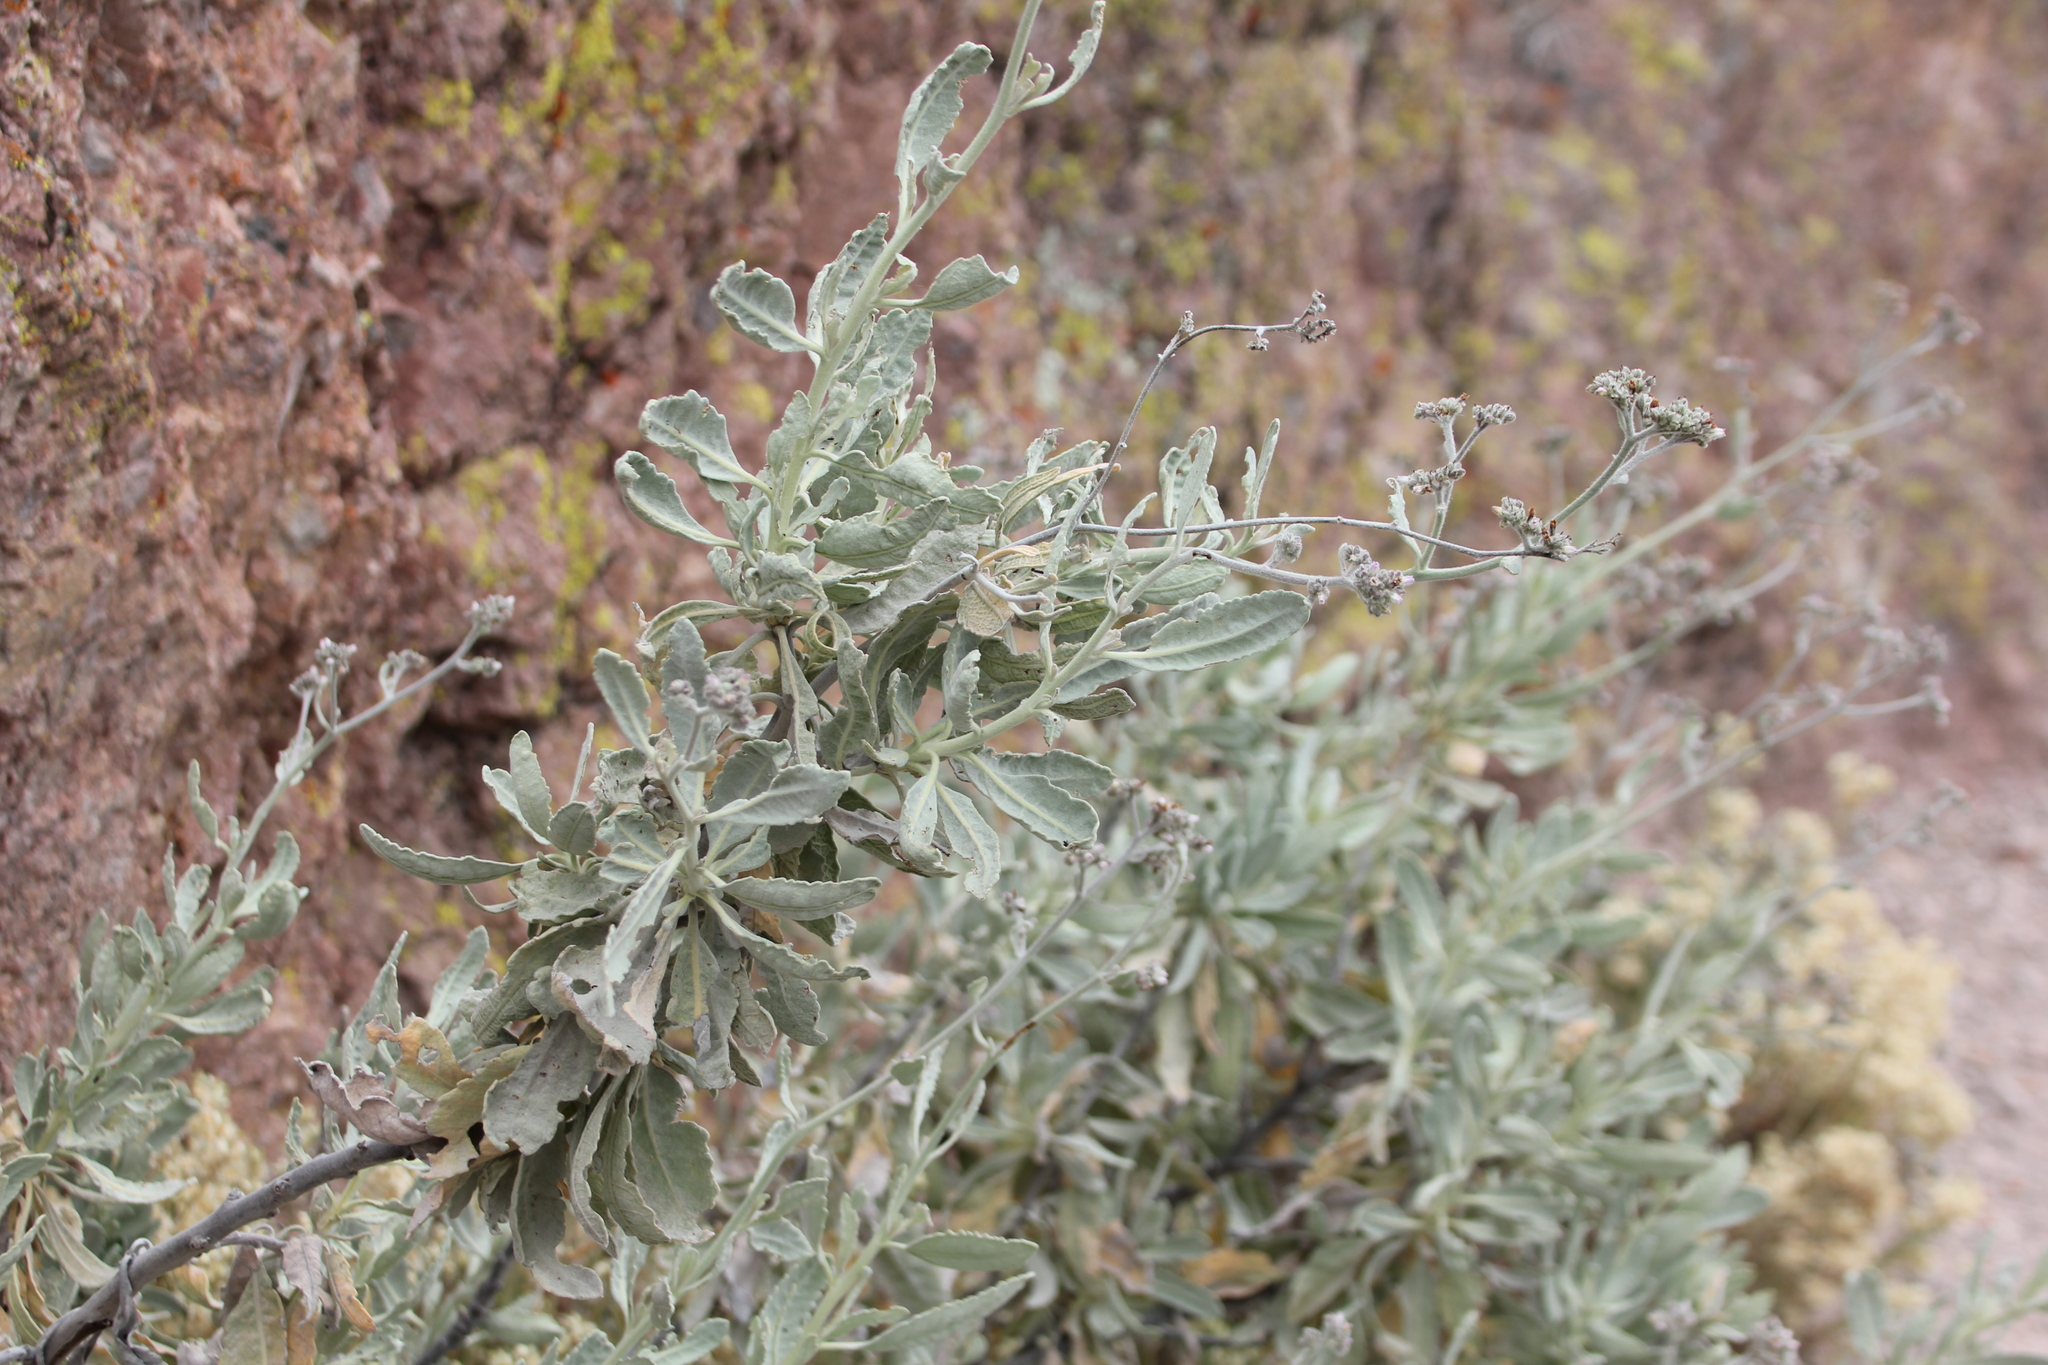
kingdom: Plantae
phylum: Tracheophyta
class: Magnoliopsida
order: Boraginales
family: Namaceae
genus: Eriodictyon
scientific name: Eriodictyon tomentosum
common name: Woolly yerba-santa
